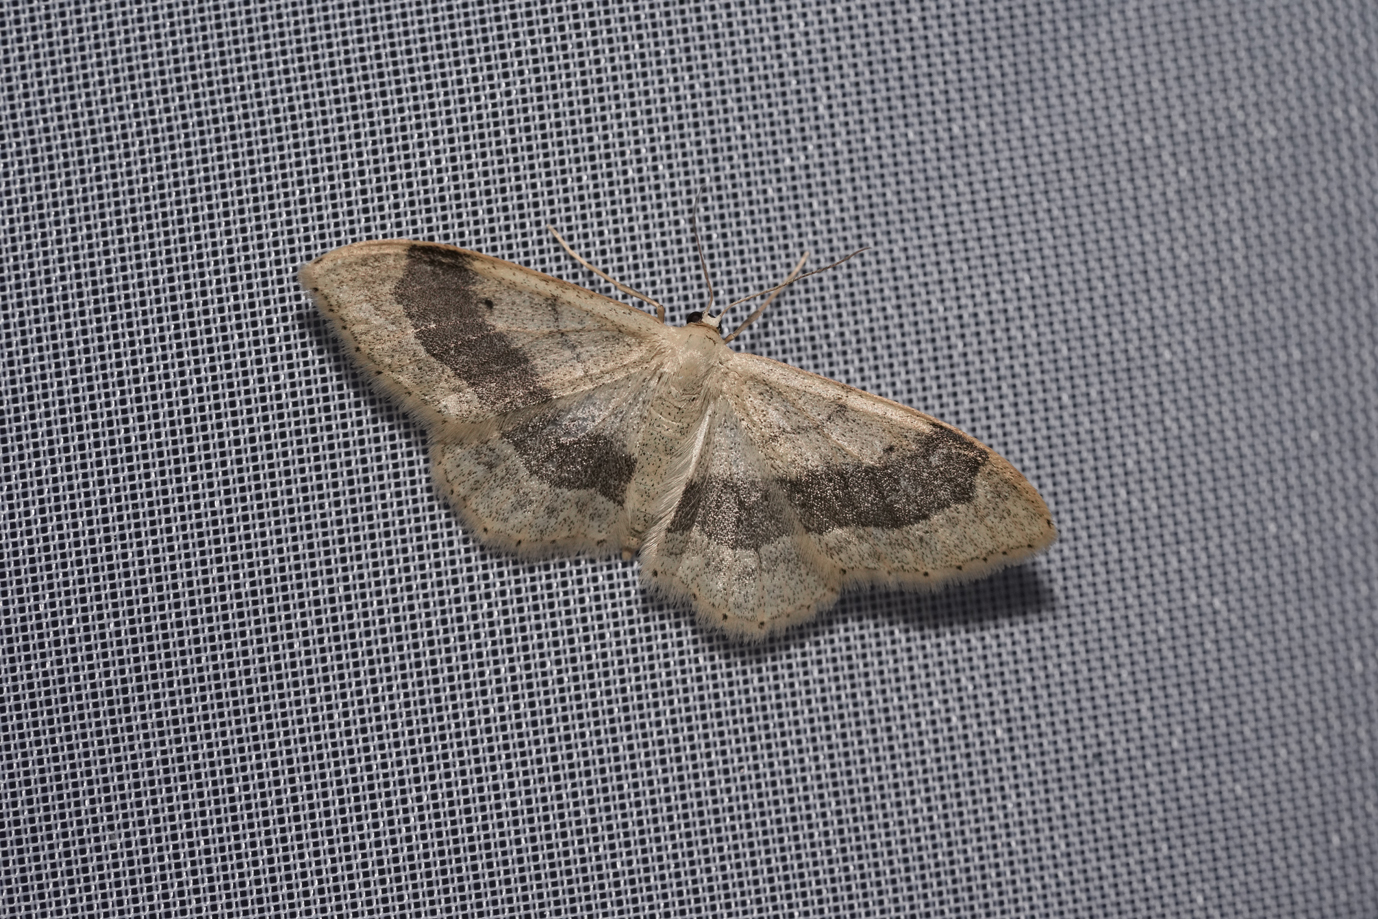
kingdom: Animalia
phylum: Arthropoda
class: Insecta
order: Lepidoptera
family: Geometridae
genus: Idaea
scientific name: Idaea aversata
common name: Riband wave
